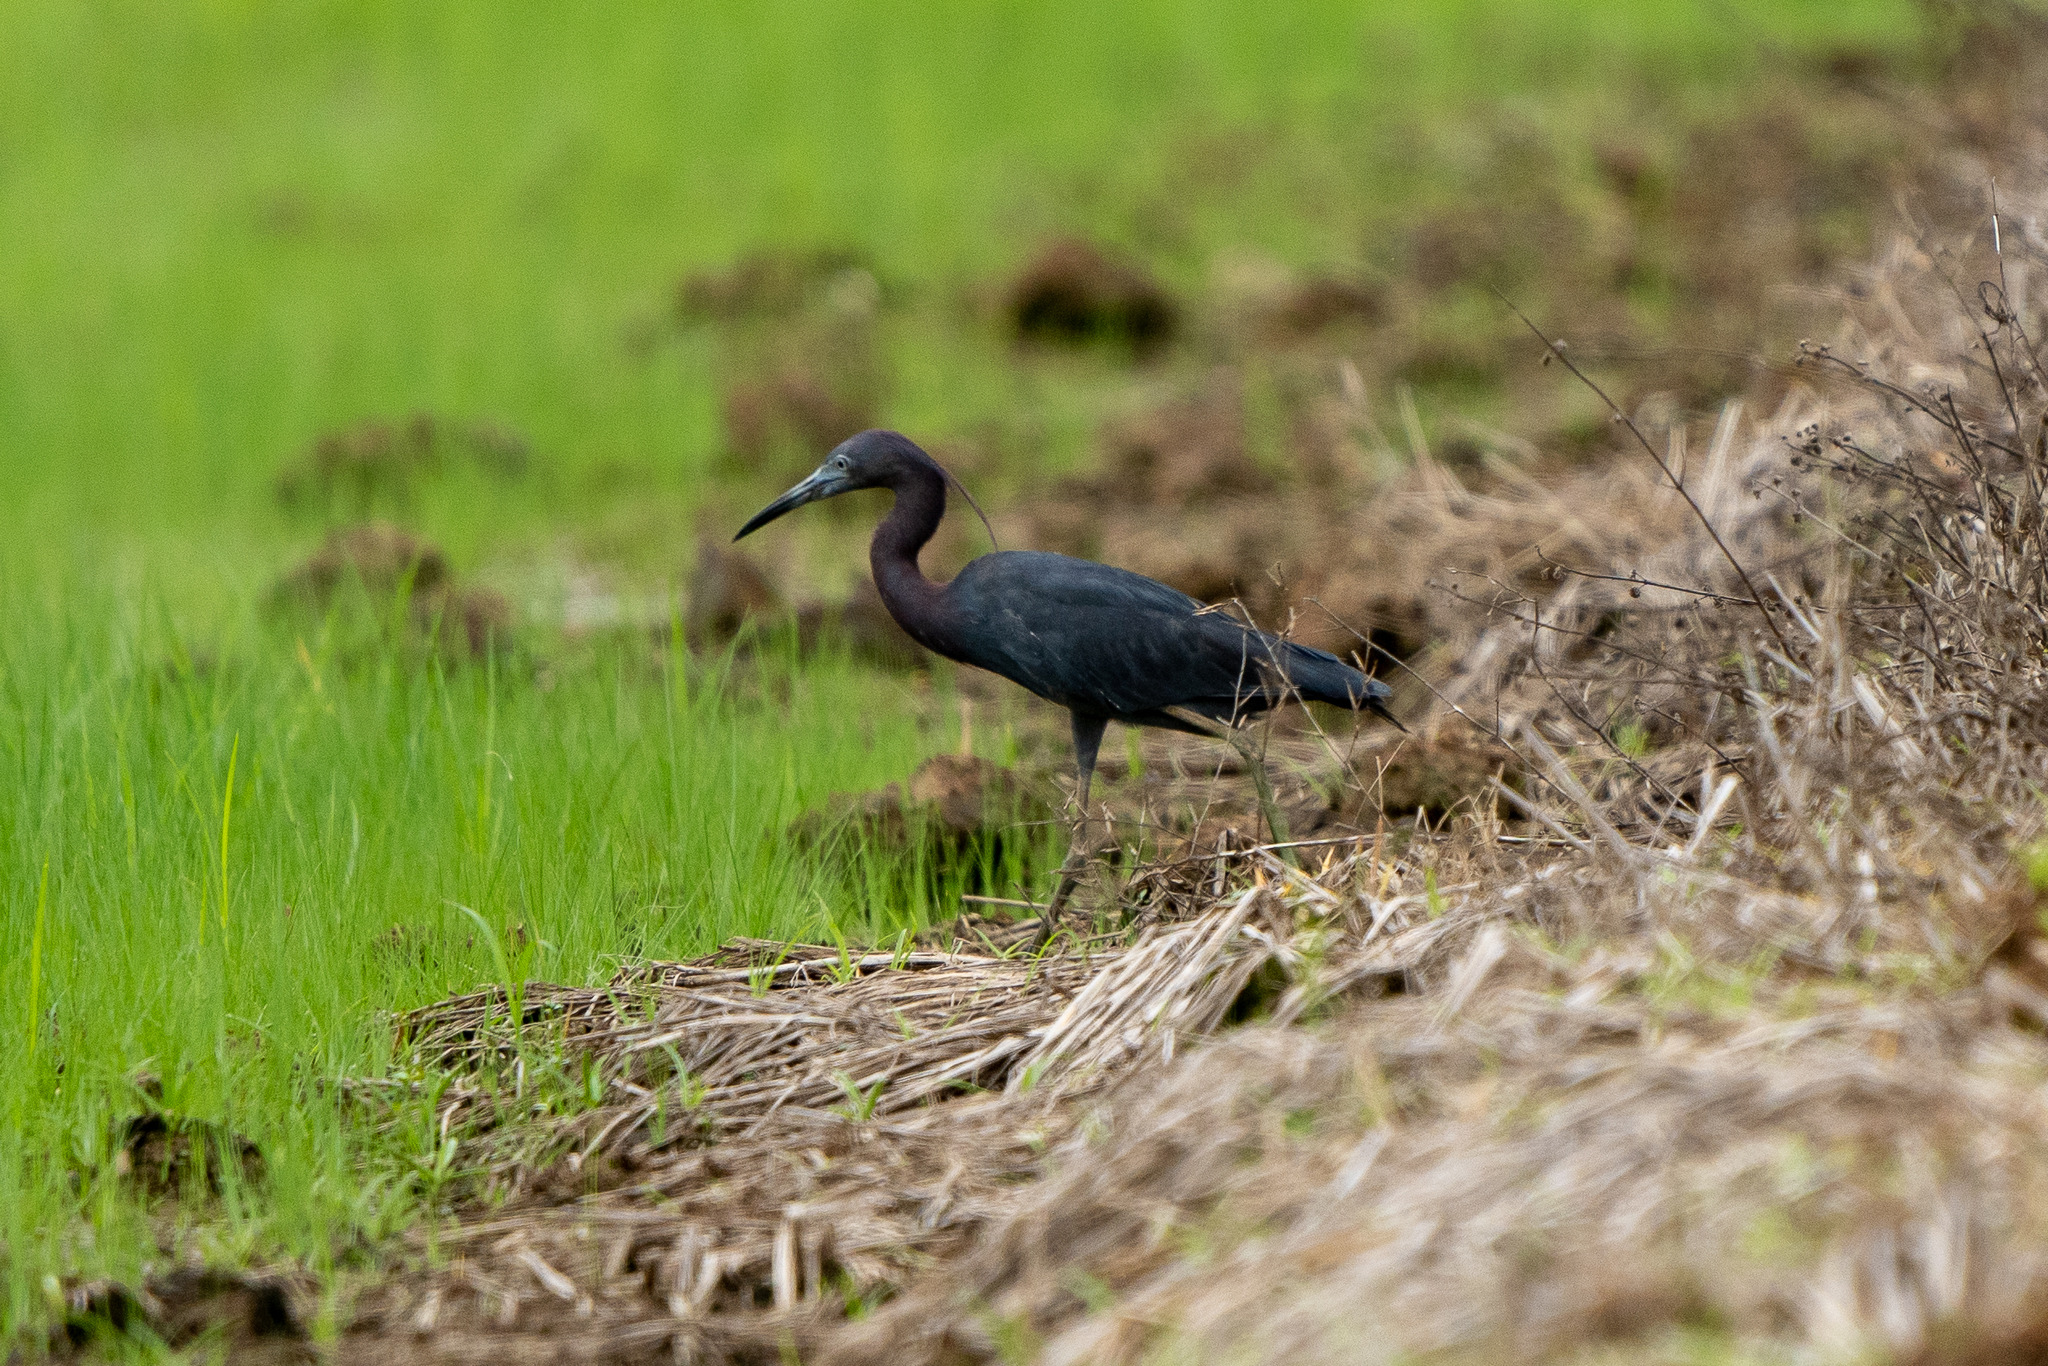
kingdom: Animalia
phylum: Chordata
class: Aves
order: Pelecaniformes
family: Ardeidae
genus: Egretta
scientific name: Egretta caerulea
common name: Little blue heron
